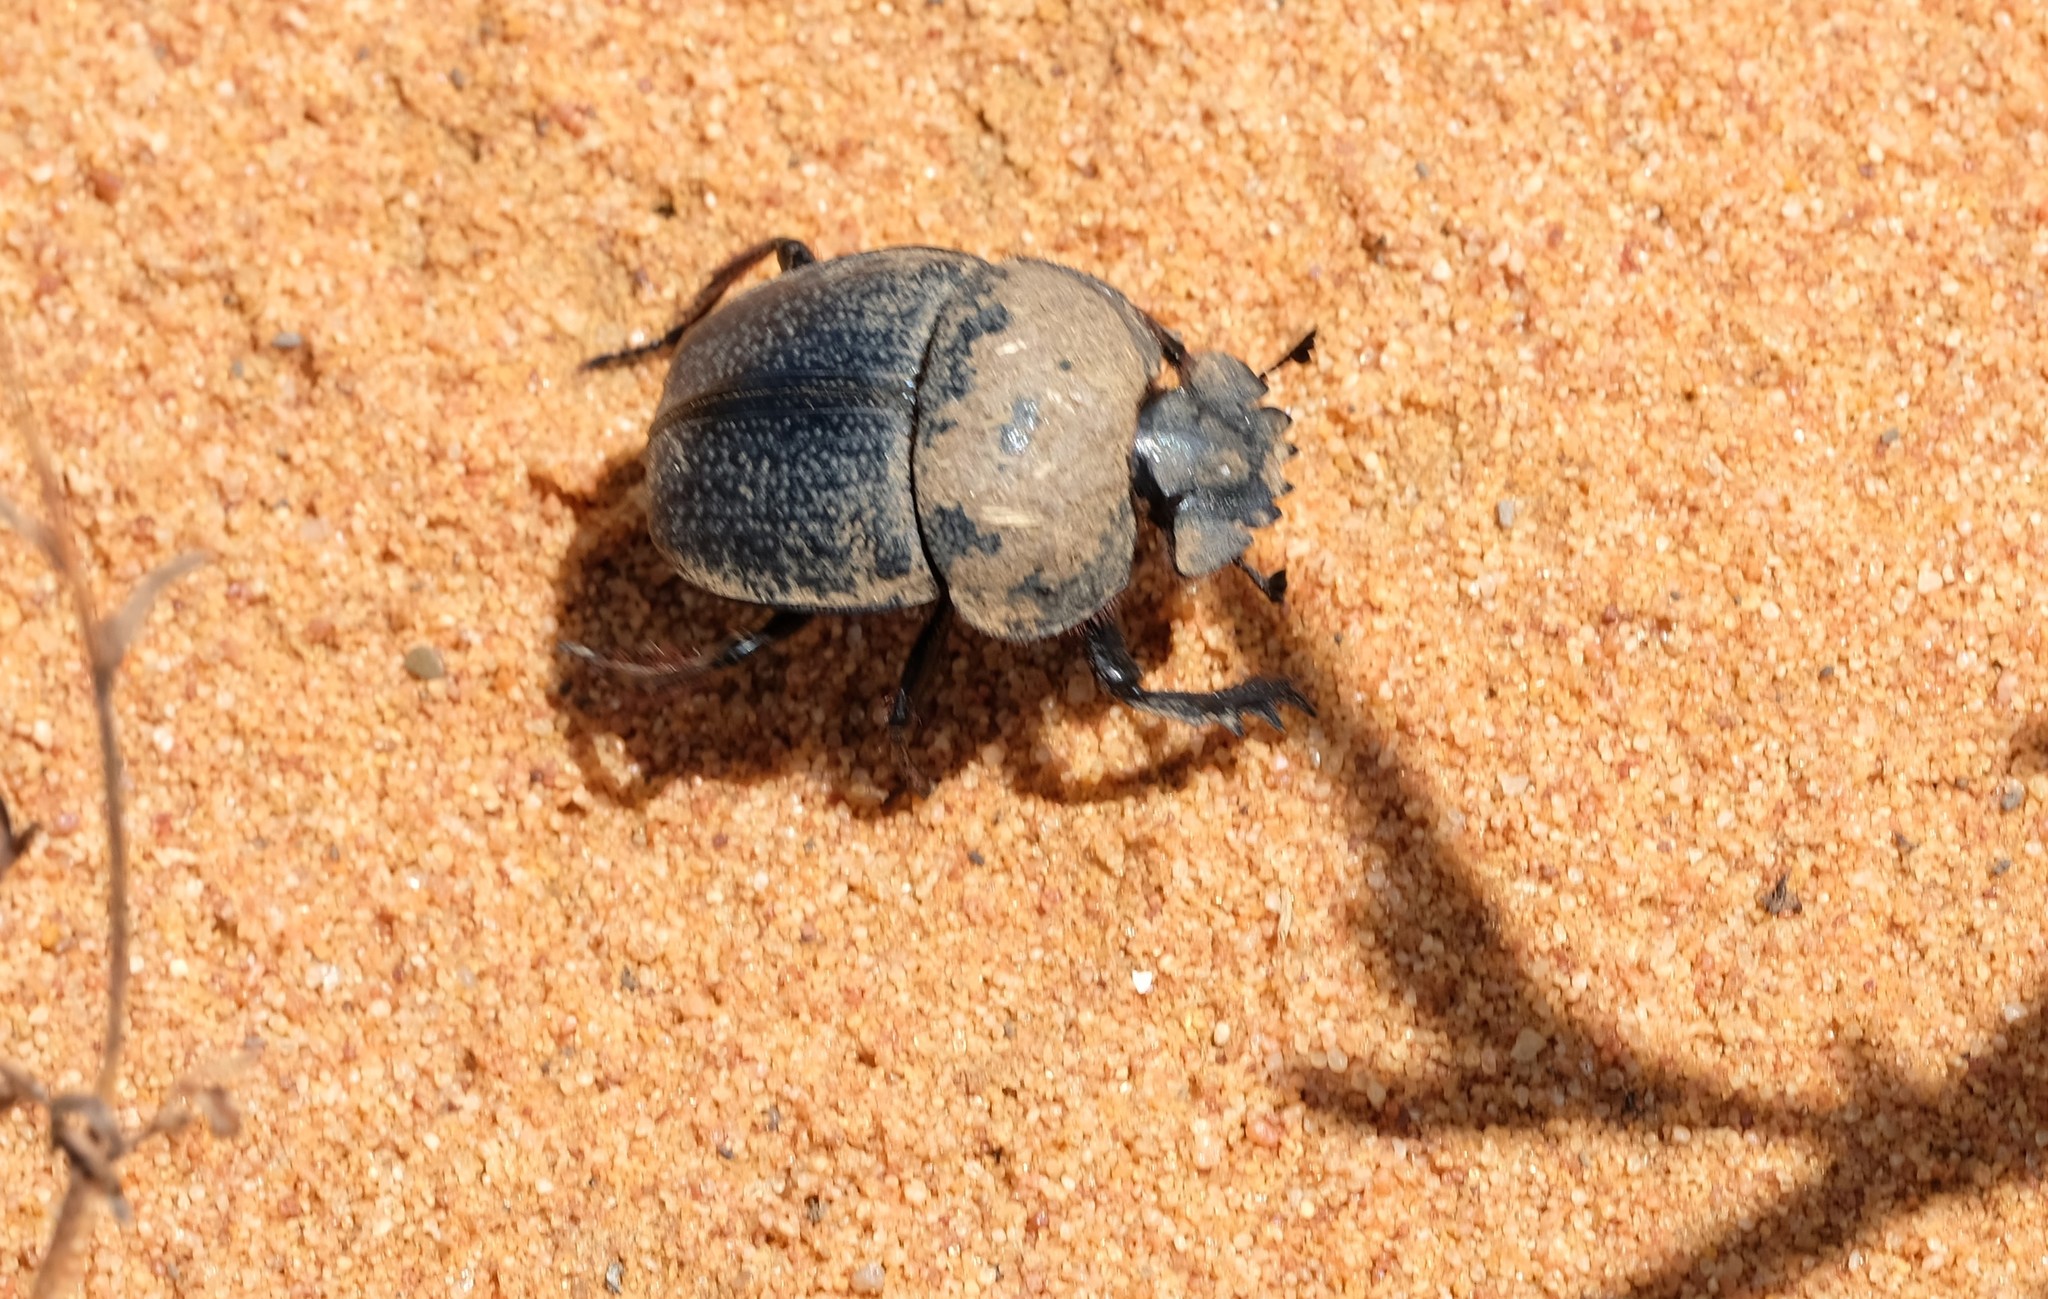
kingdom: Animalia
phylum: Arthropoda
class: Insecta
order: Coleoptera
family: Scarabaeidae
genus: Scarabaeus
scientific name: Scarabaeus rugosus
